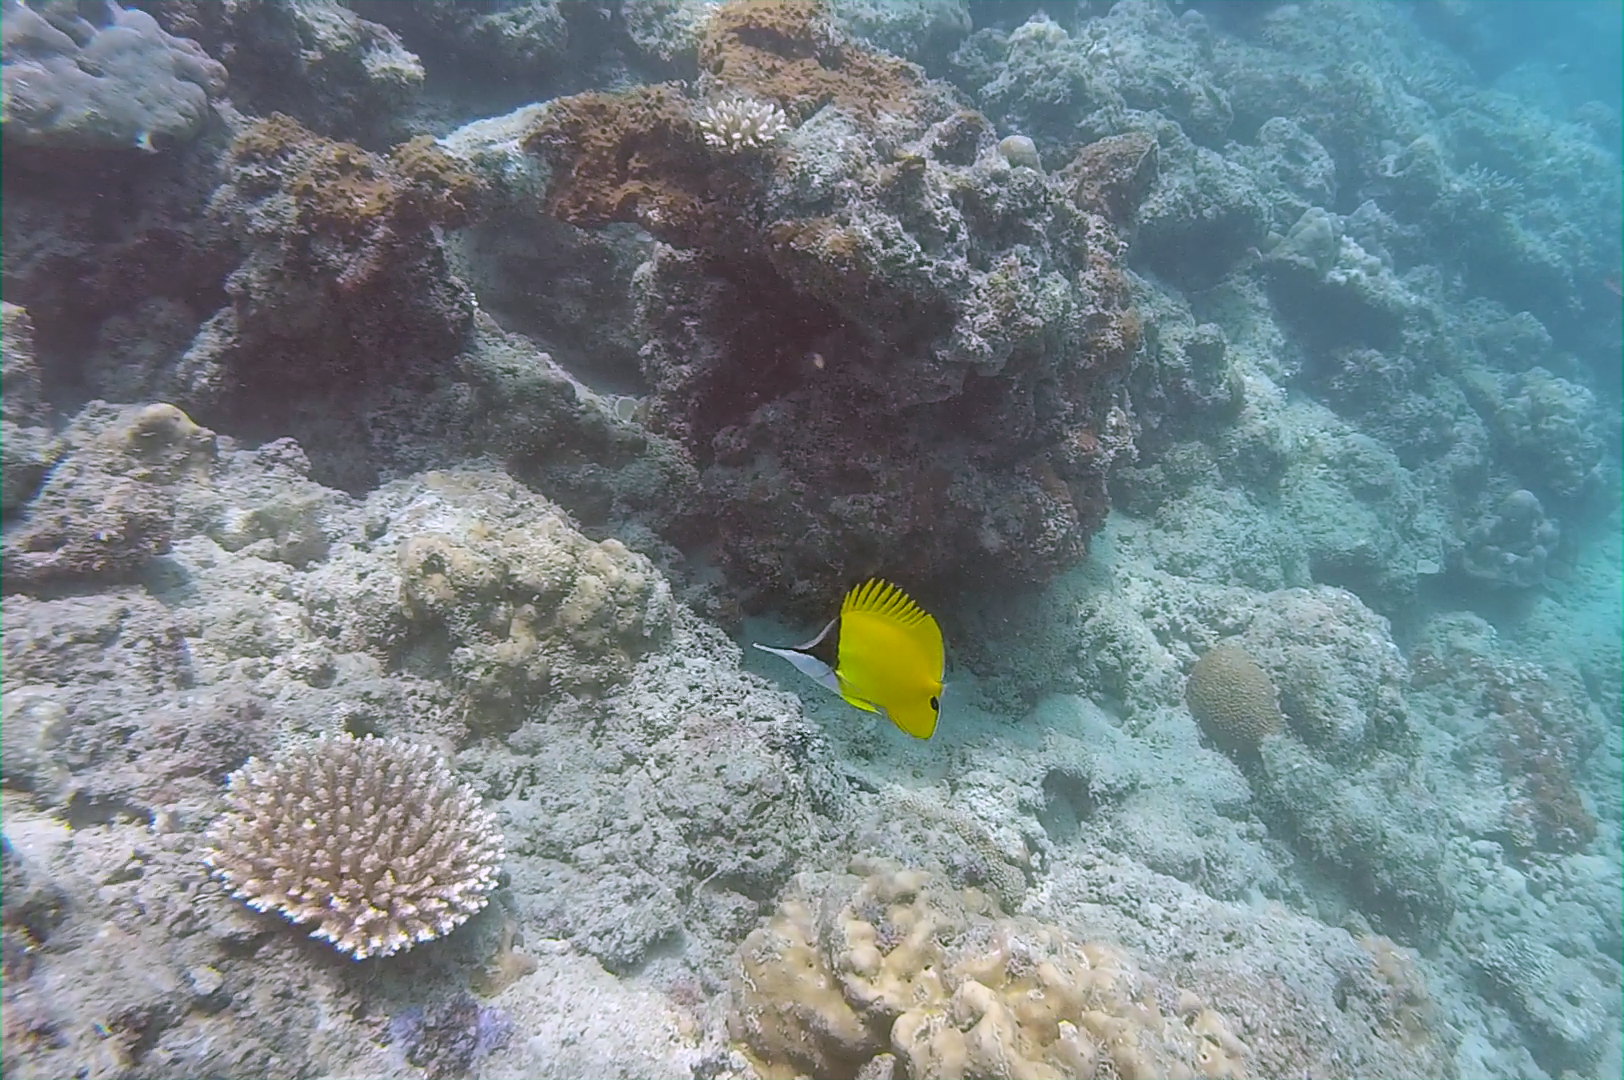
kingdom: Animalia
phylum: Chordata
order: Perciformes
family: Chaetodontidae
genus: Forcipiger
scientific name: Forcipiger flavissimus
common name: Forcepsfish
